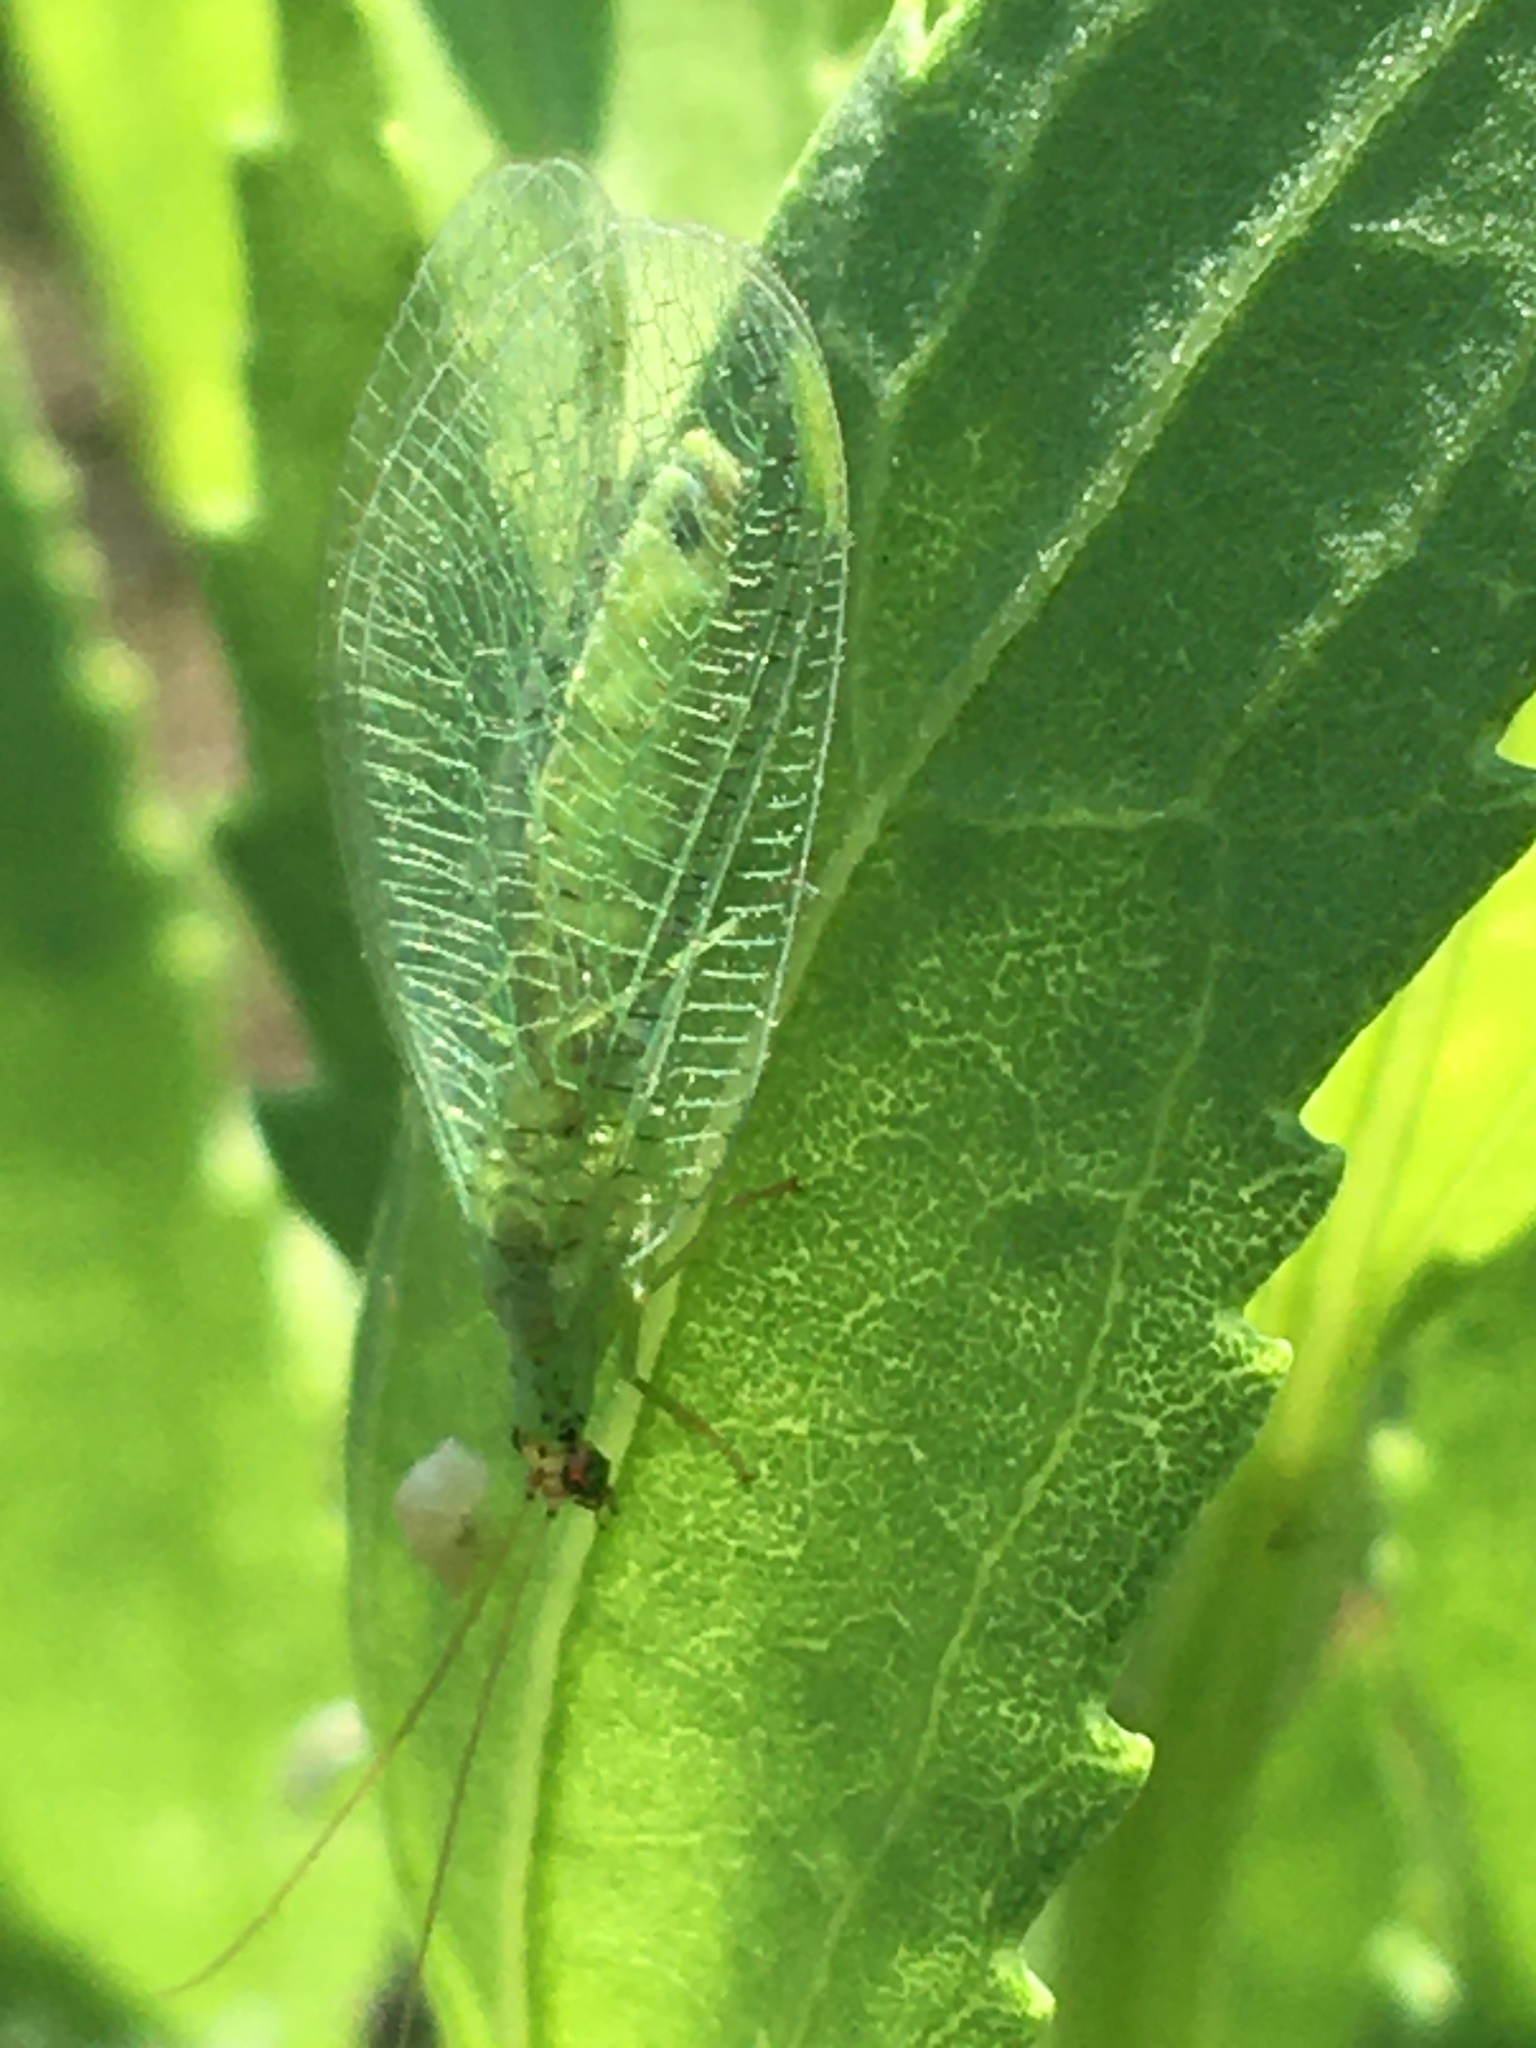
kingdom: Animalia
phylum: Arthropoda
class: Insecta
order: Neuroptera
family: Chrysopidae
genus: Chrysopa
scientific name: Chrysopa oculata
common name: Golden-eyed lacewing
